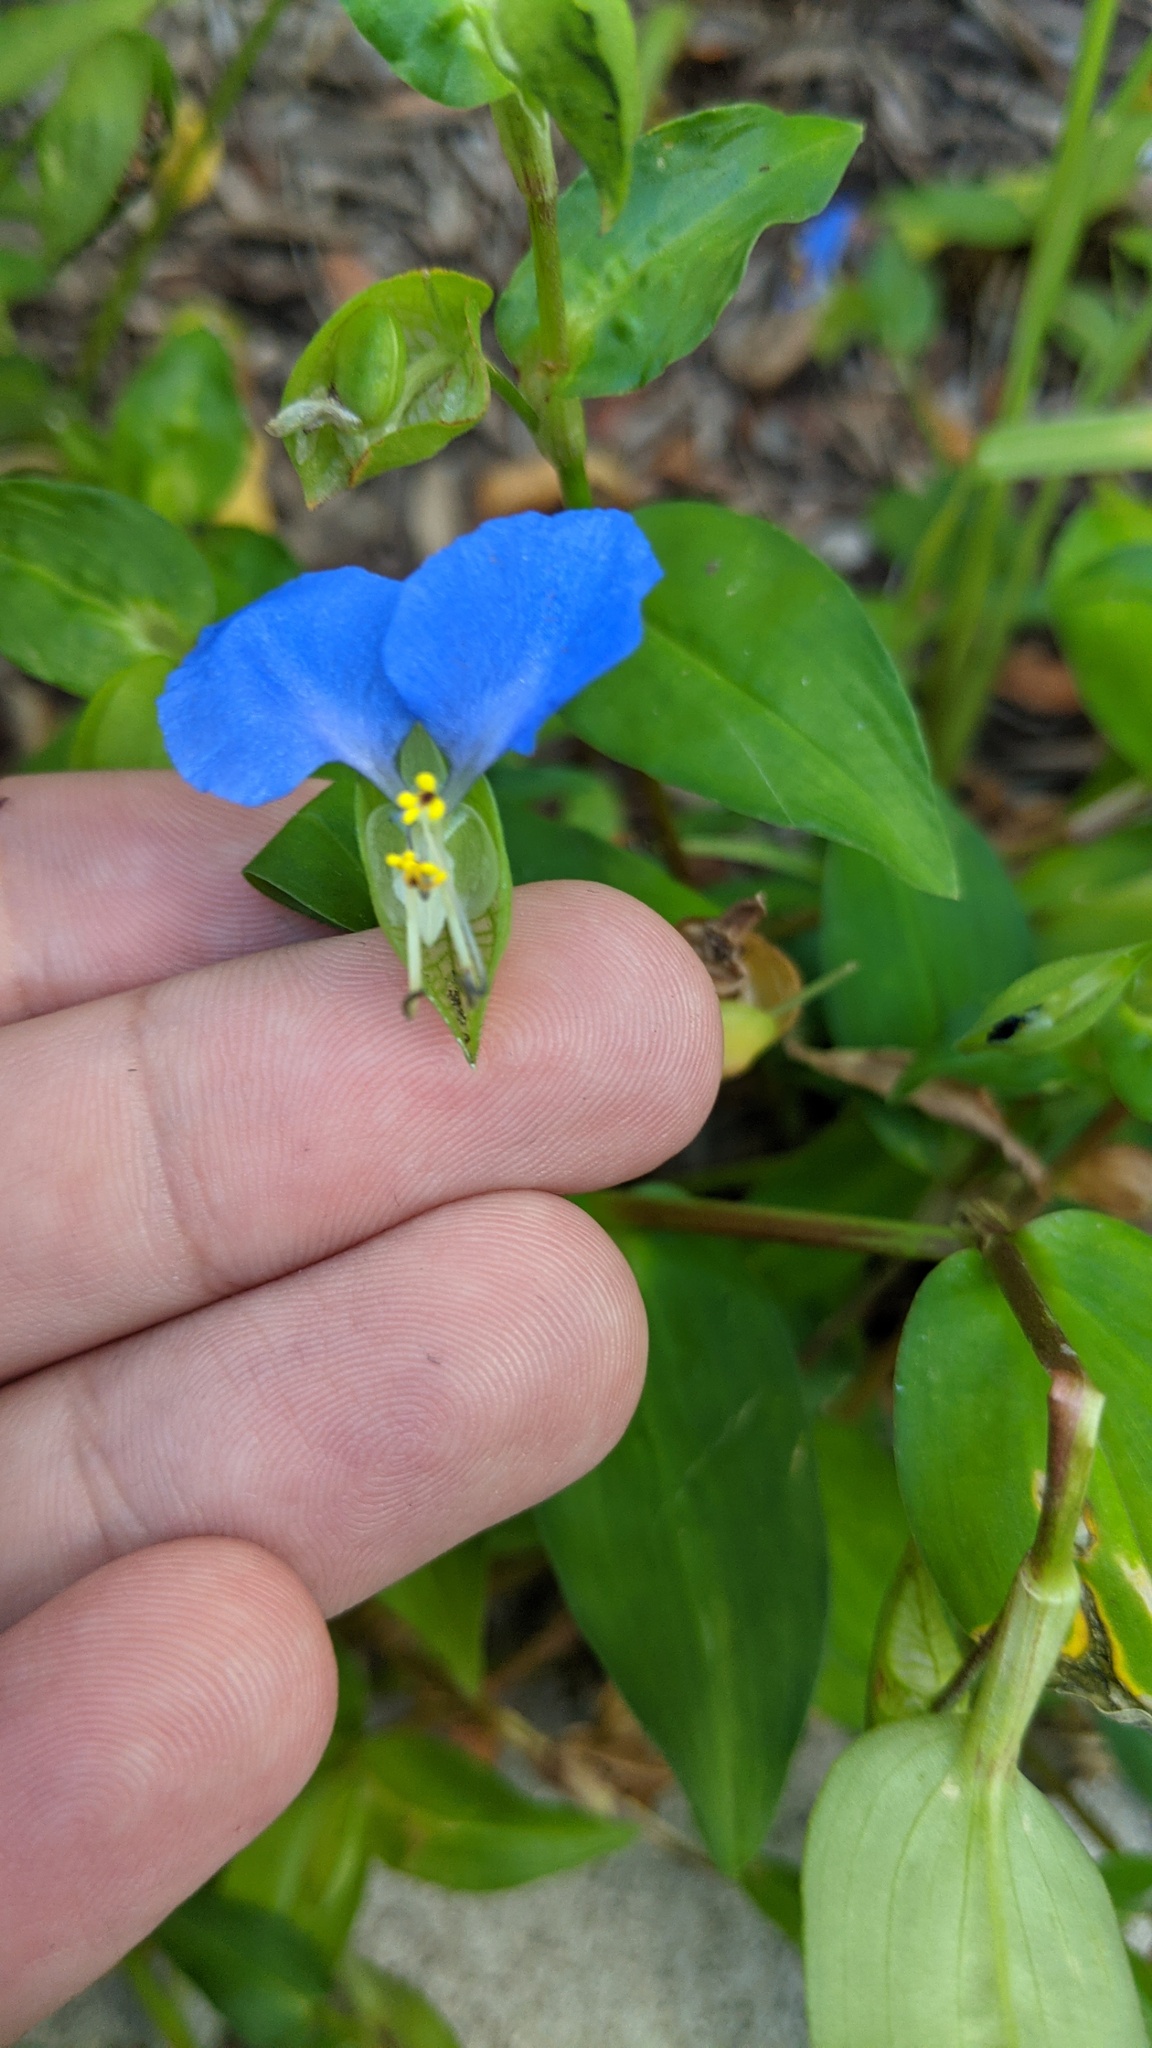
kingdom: Plantae
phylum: Tracheophyta
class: Liliopsida
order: Commelinales
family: Commelinaceae
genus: Commelina
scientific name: Commelina communis
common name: Asiatic dayflower
